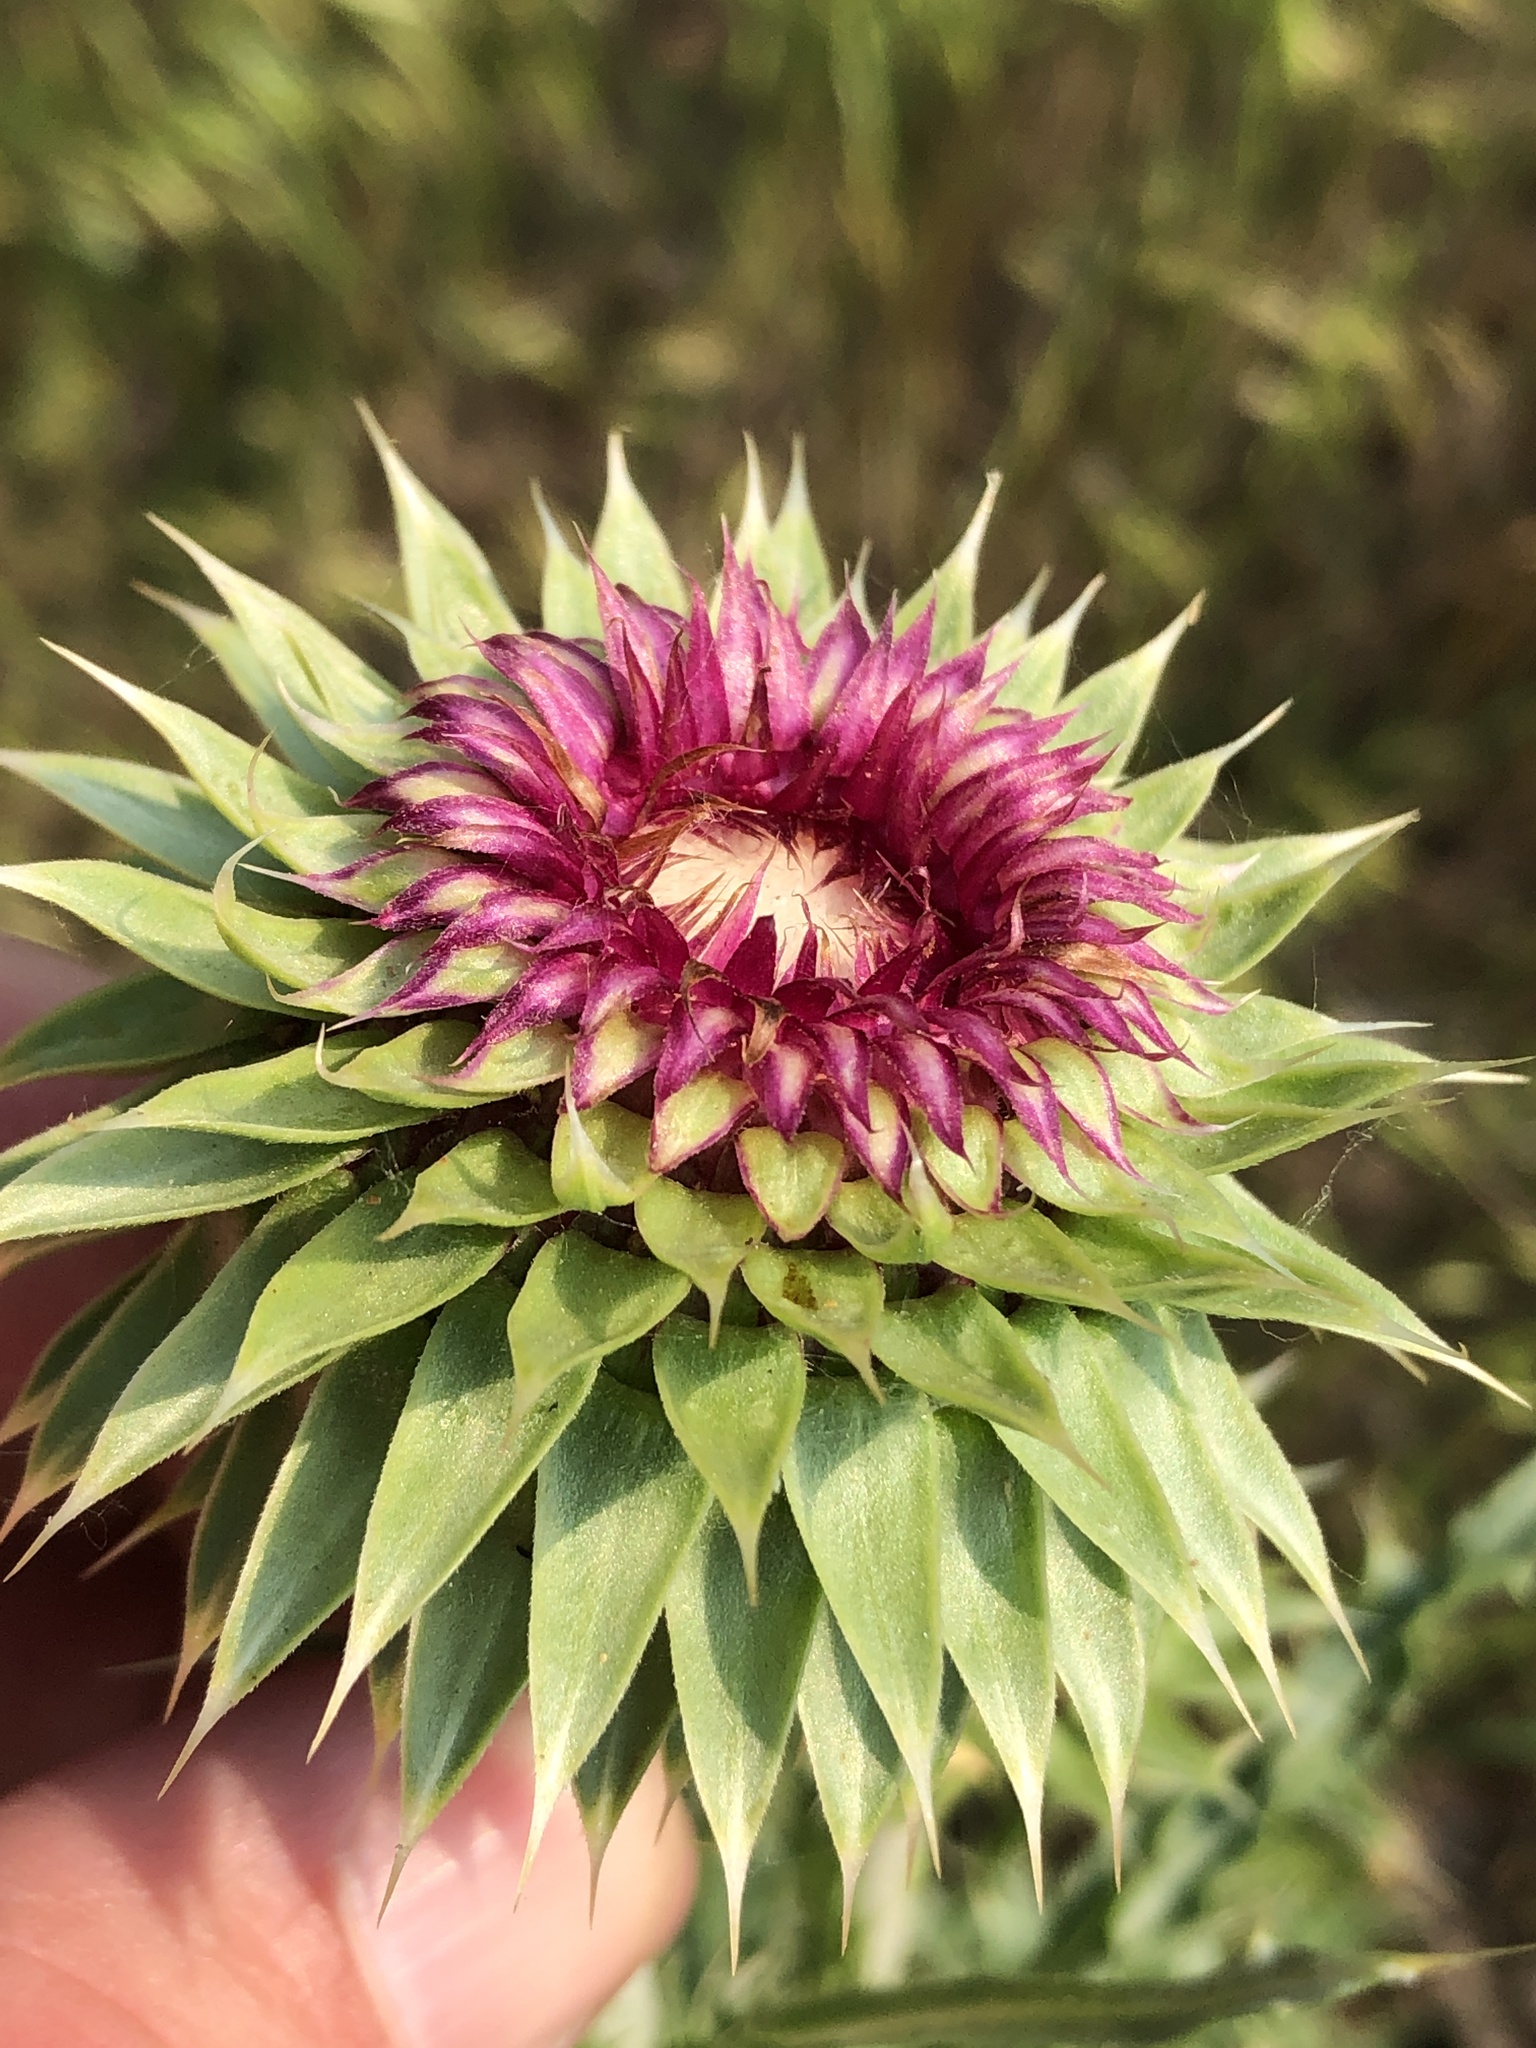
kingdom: Plantae
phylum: Tracheophyta
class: Magnoliopsida
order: Asterales
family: Asteraceae
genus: Carduus
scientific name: Carduus nutans
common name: Musk thistle
